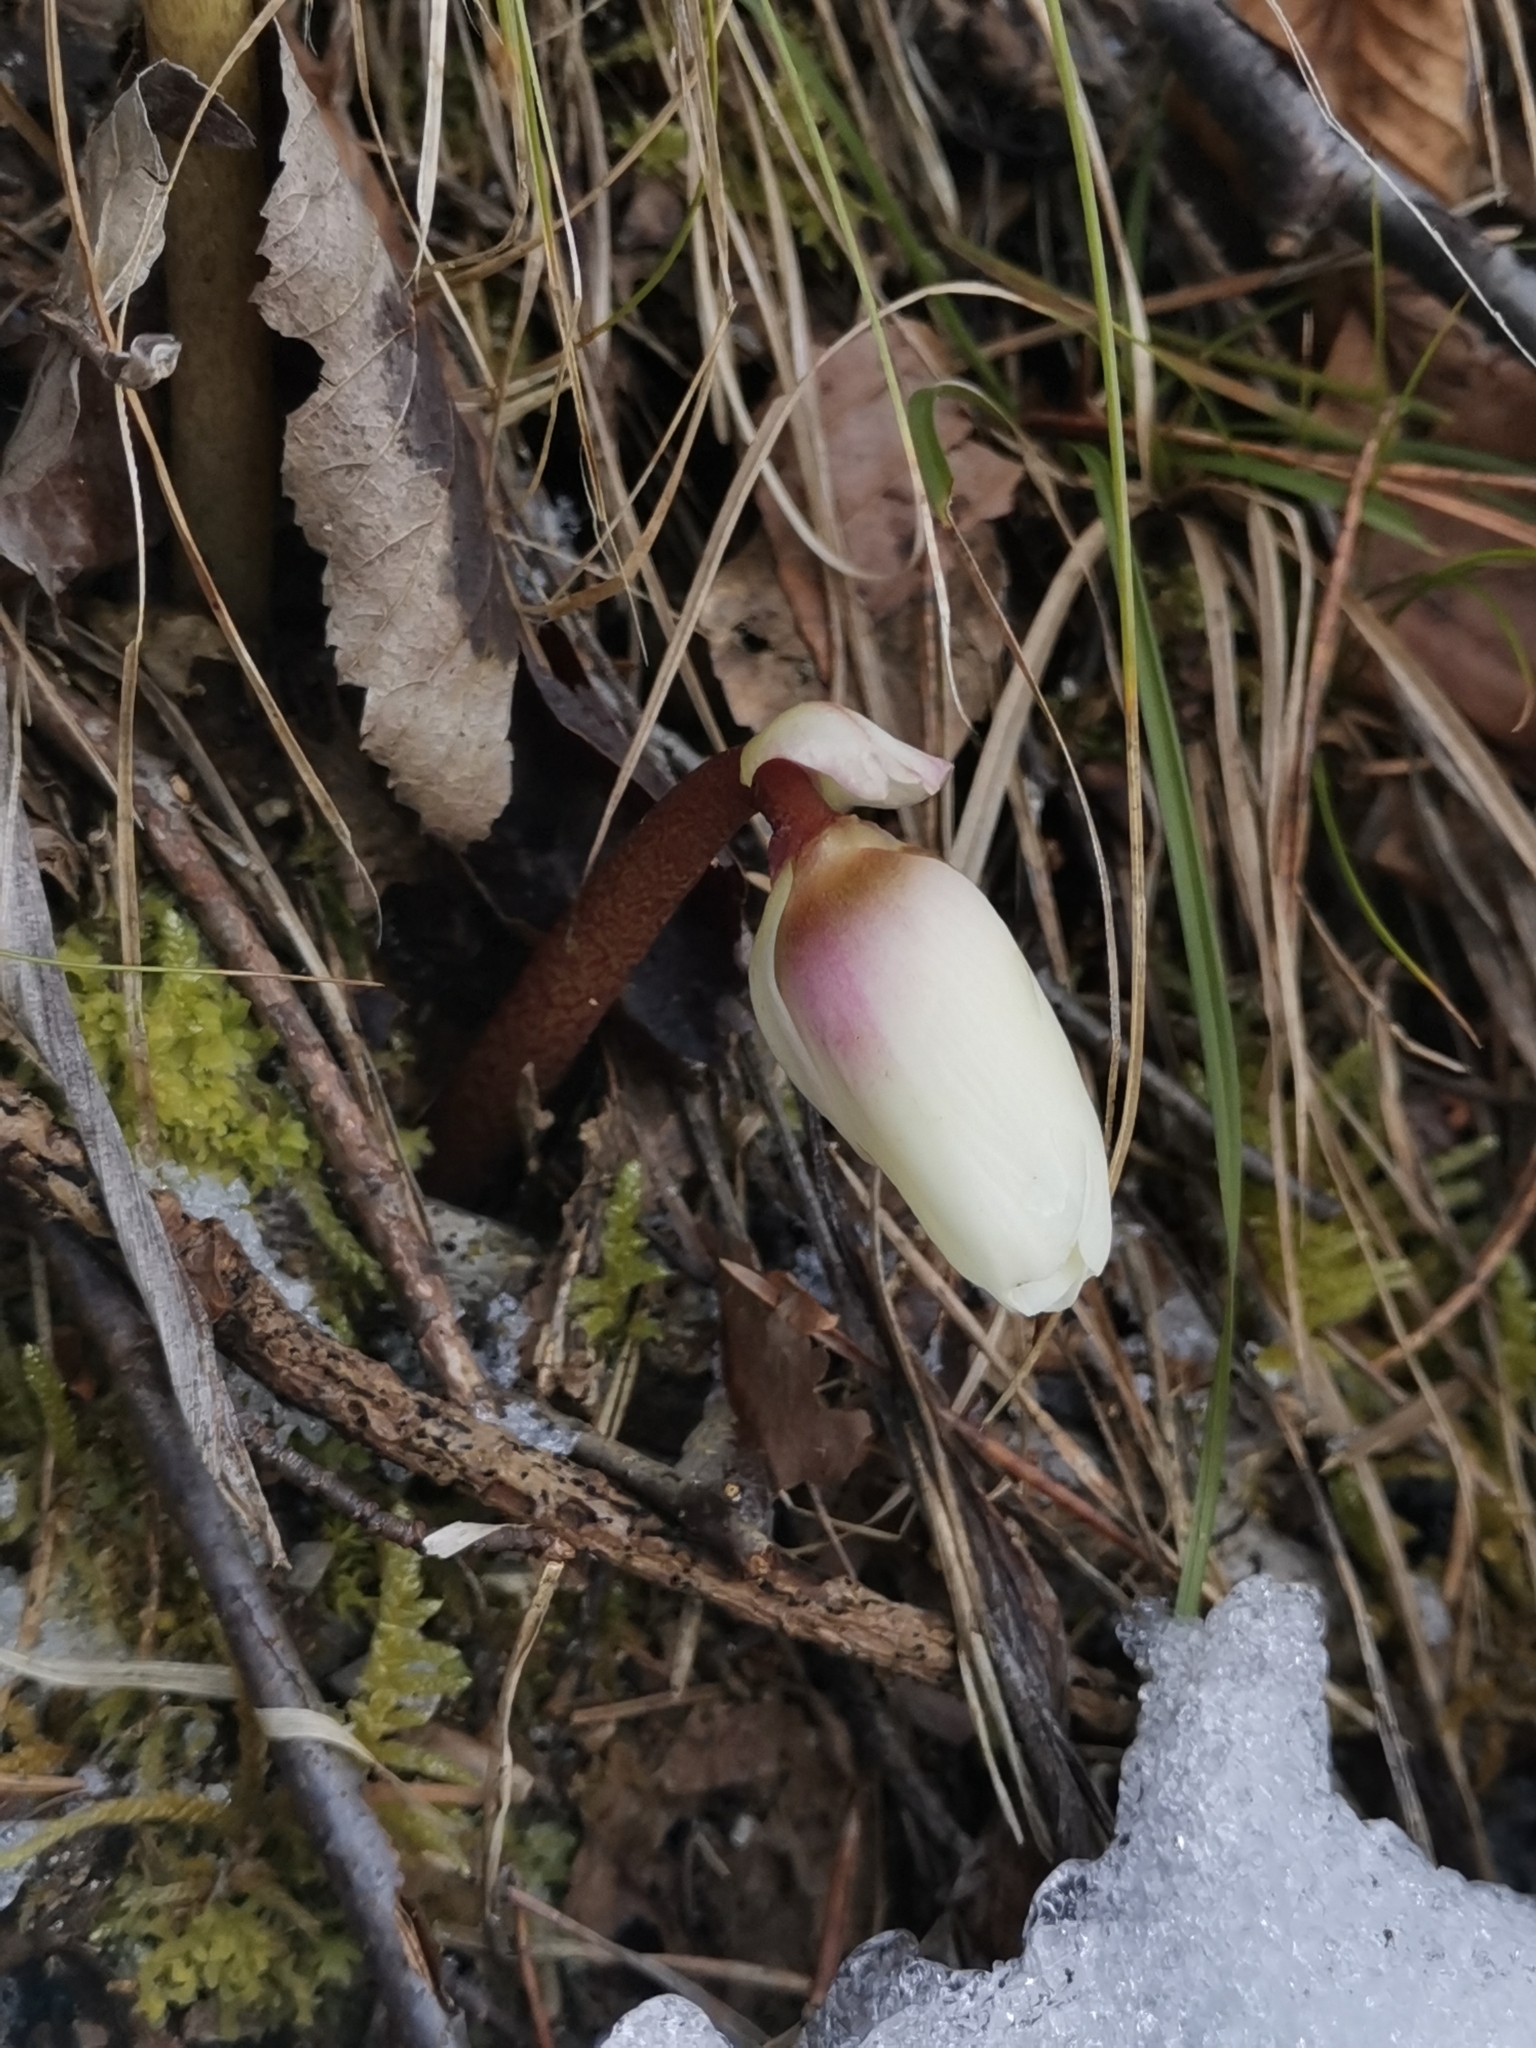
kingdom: Plantae
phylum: Tracheophyta
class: Magnoliopsida
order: Ranunculales
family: Ranunculaceae
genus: Helleborus
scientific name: Helleborus niger
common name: Black hellebore
